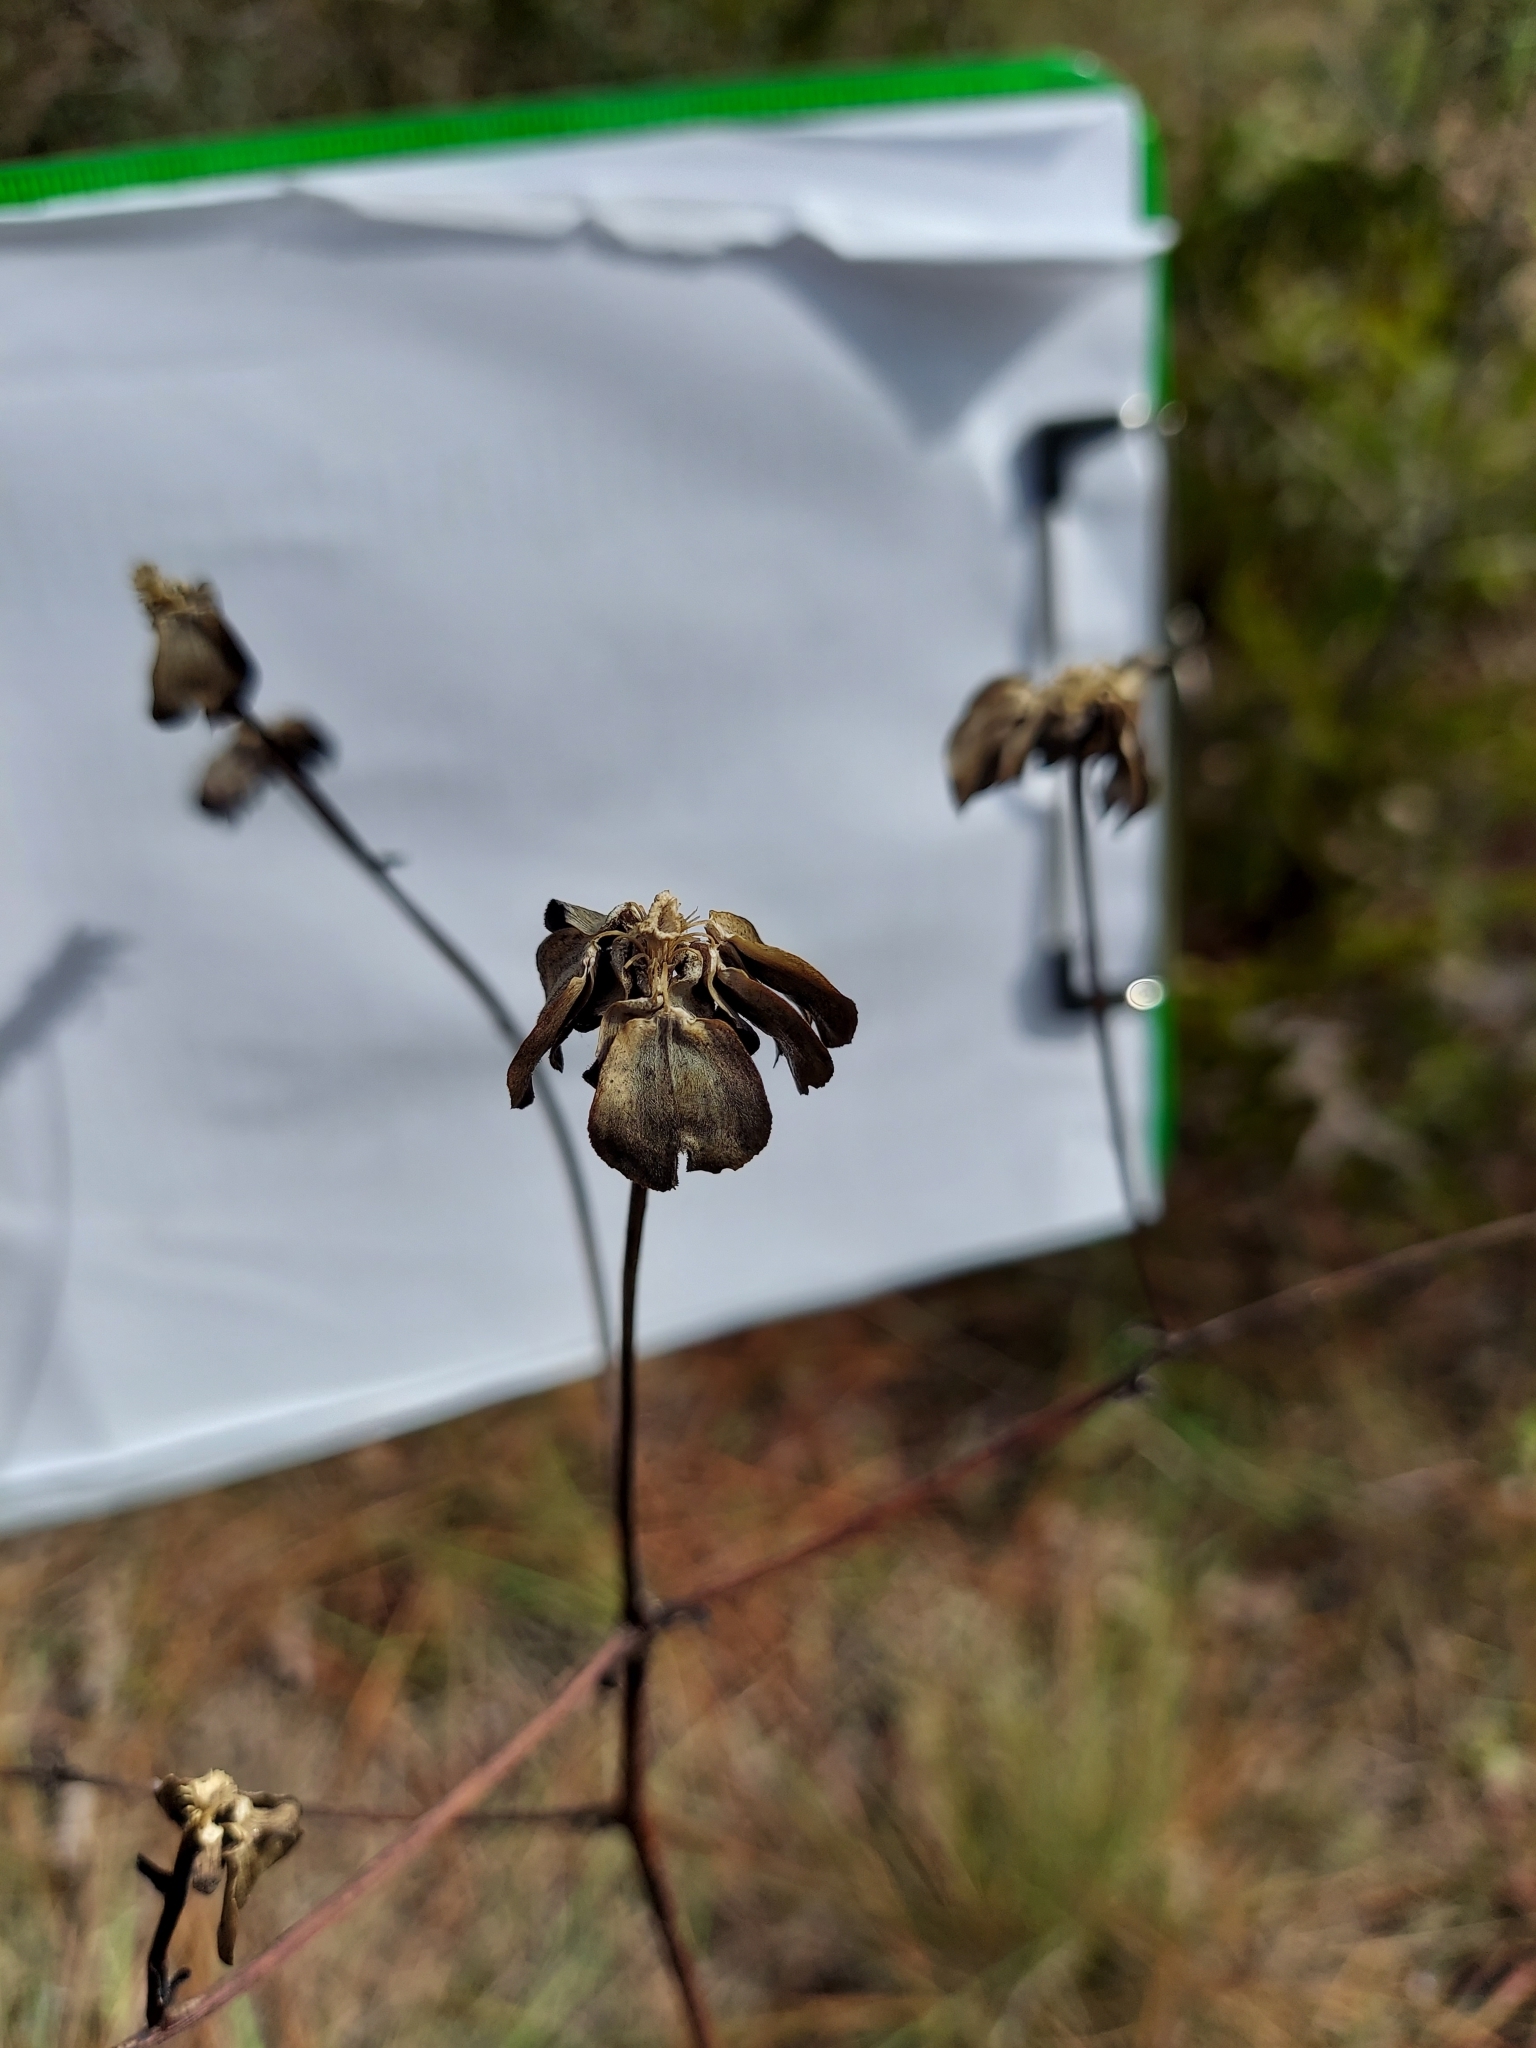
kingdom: Plantae
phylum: Tracheophyta
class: Magnoliopsida
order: Asterales
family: Asteraceae
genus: Silphium
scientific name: Silphium compositum
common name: Lesser basal-leaf rosinweed
